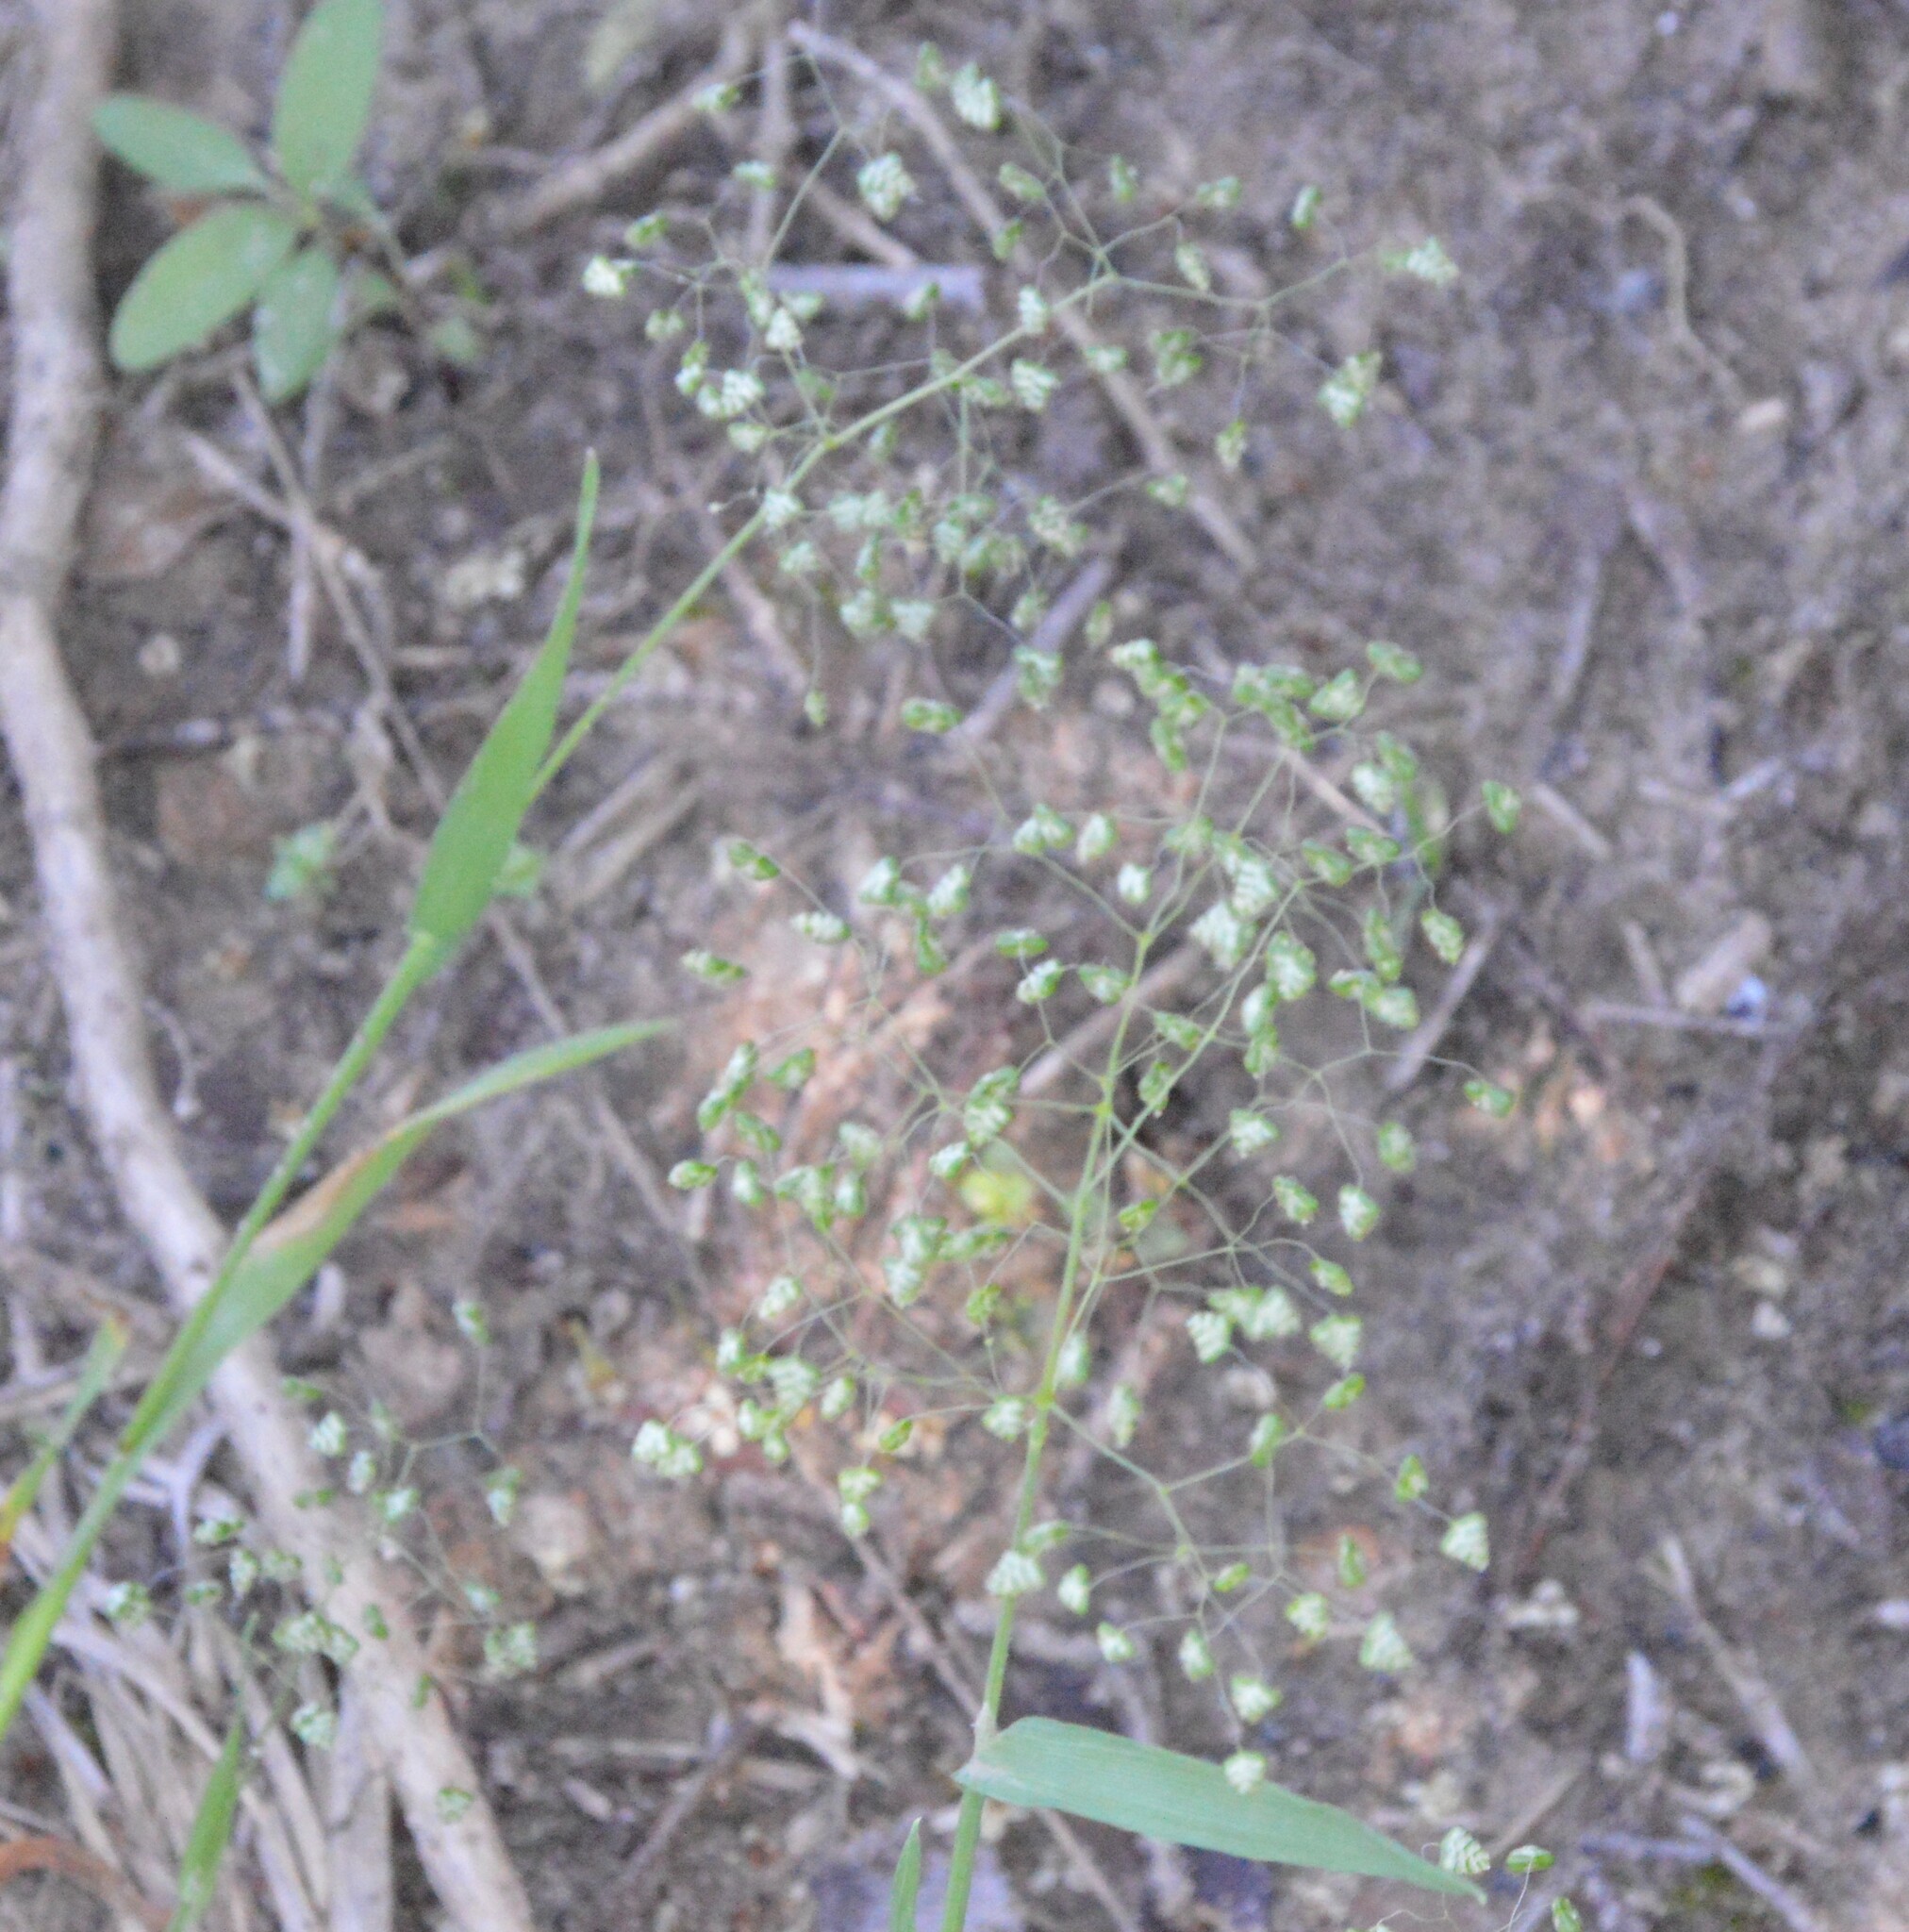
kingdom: Plantae
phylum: Tracheophyta
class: Liliopsida
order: Poales
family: Poaceae
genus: Briza
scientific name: Briza minor
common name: Lesser quaking-grass
